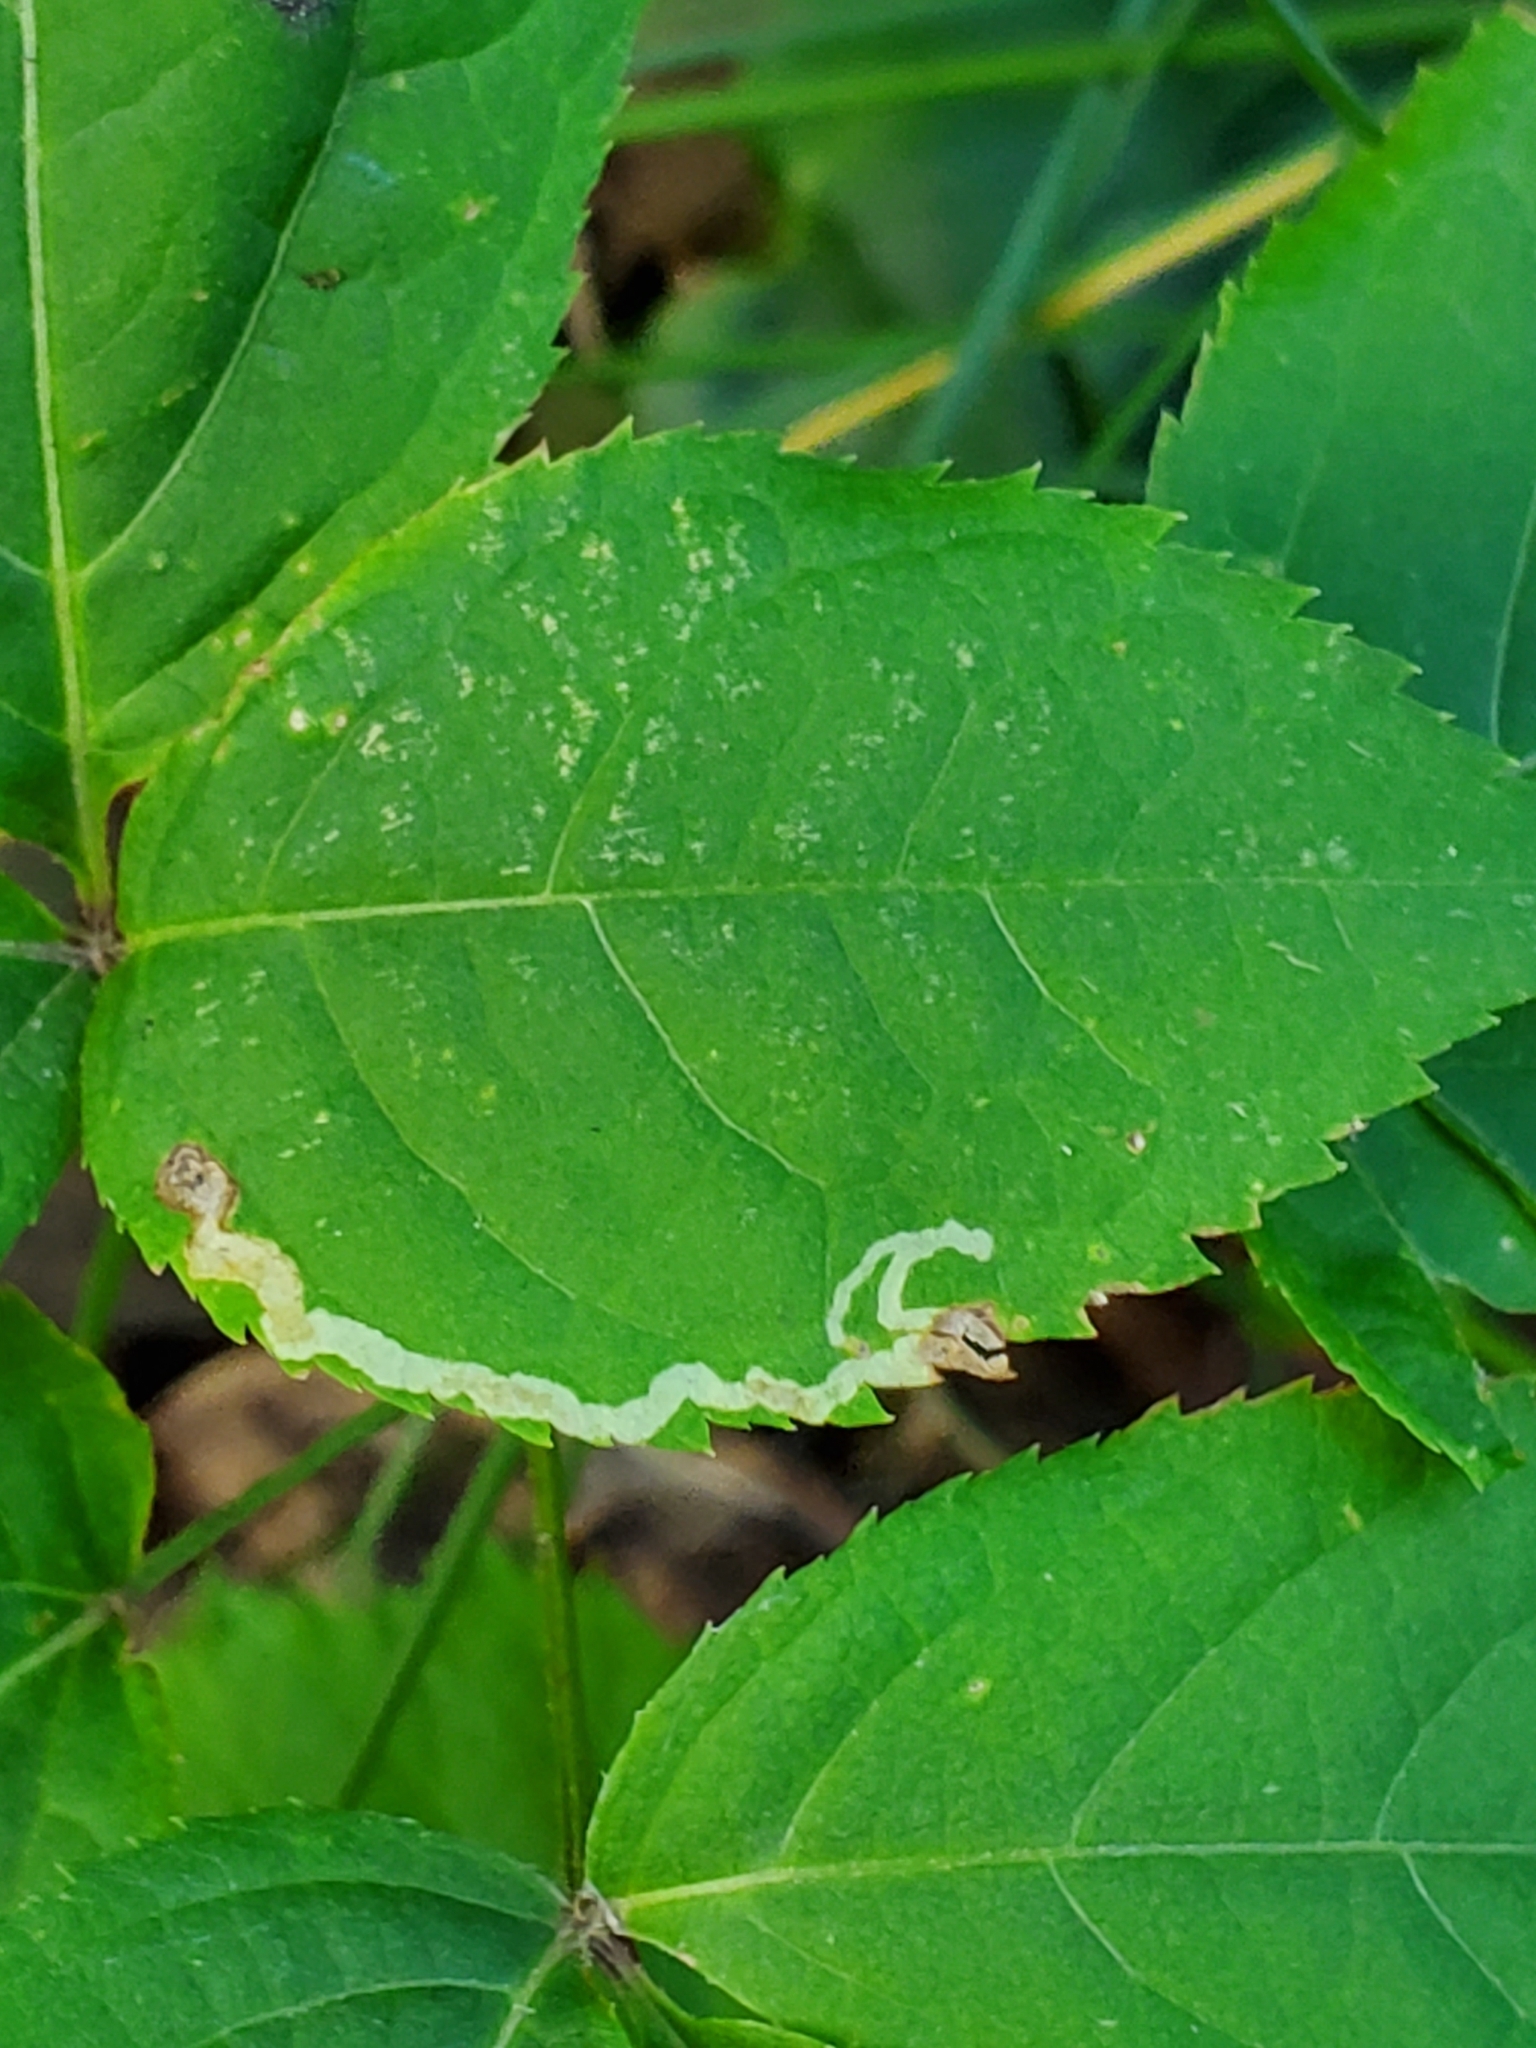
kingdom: Animalia
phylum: Arthropoda
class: Insecta
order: Diptera
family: Agromyzidae
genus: Phytomyza
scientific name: Phytomyza aralivora
